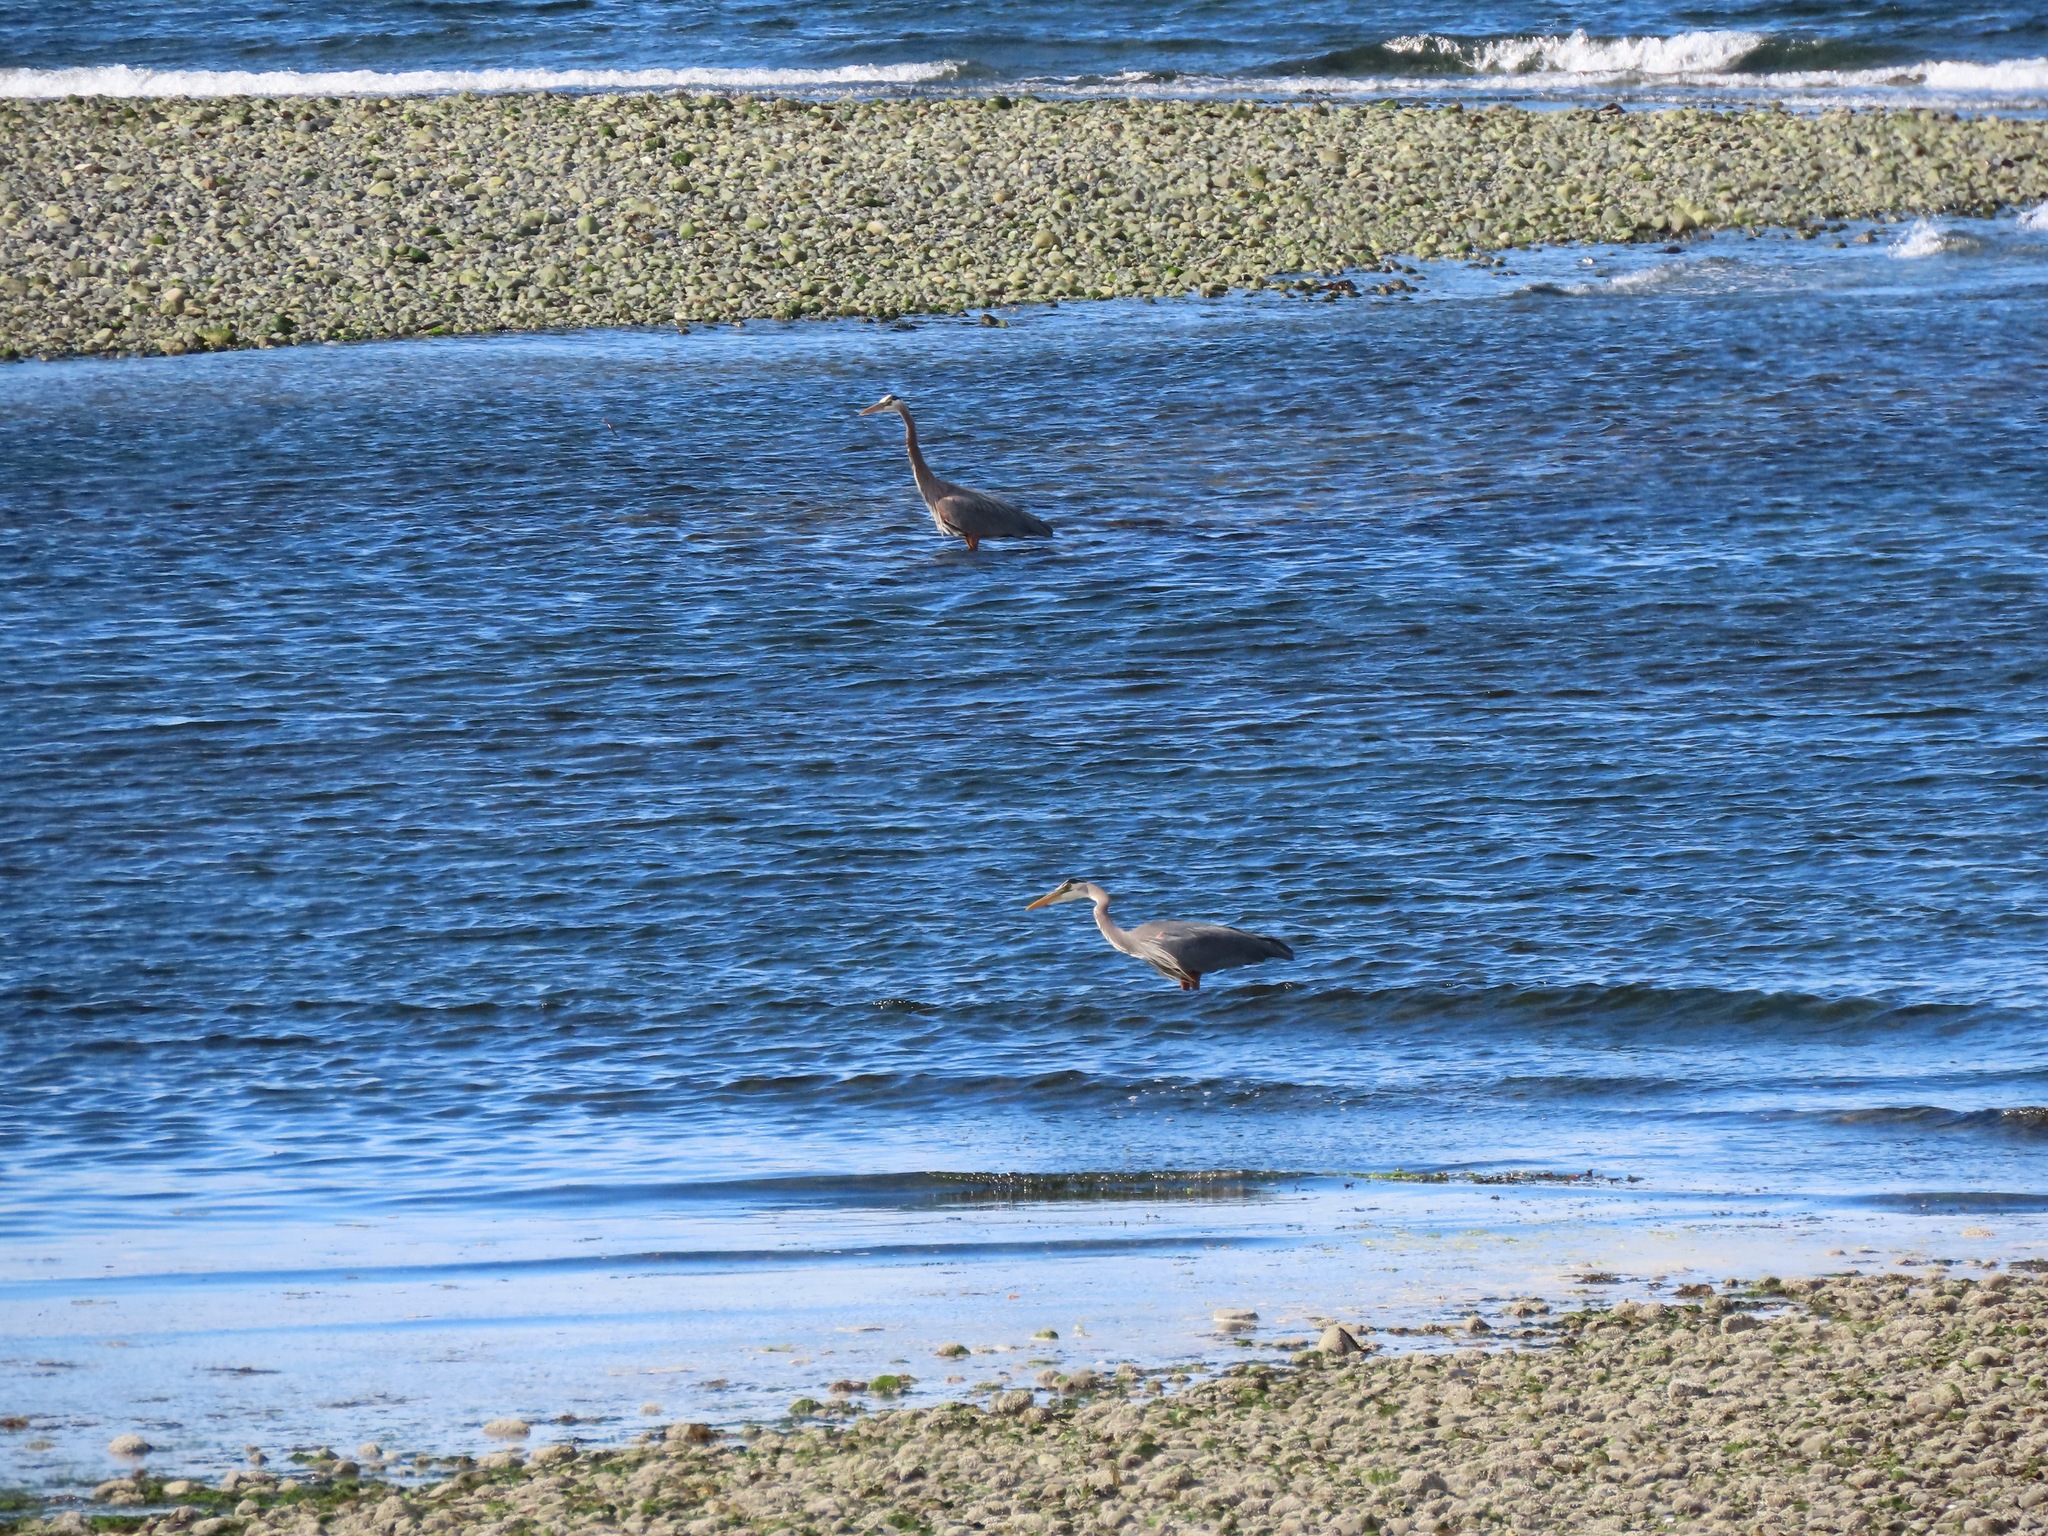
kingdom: Animalia
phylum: Chordata
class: Aves
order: Pelecaniformes
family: Ardeidae
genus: Ardea
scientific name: Ardea herodias
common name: Great blue heron
